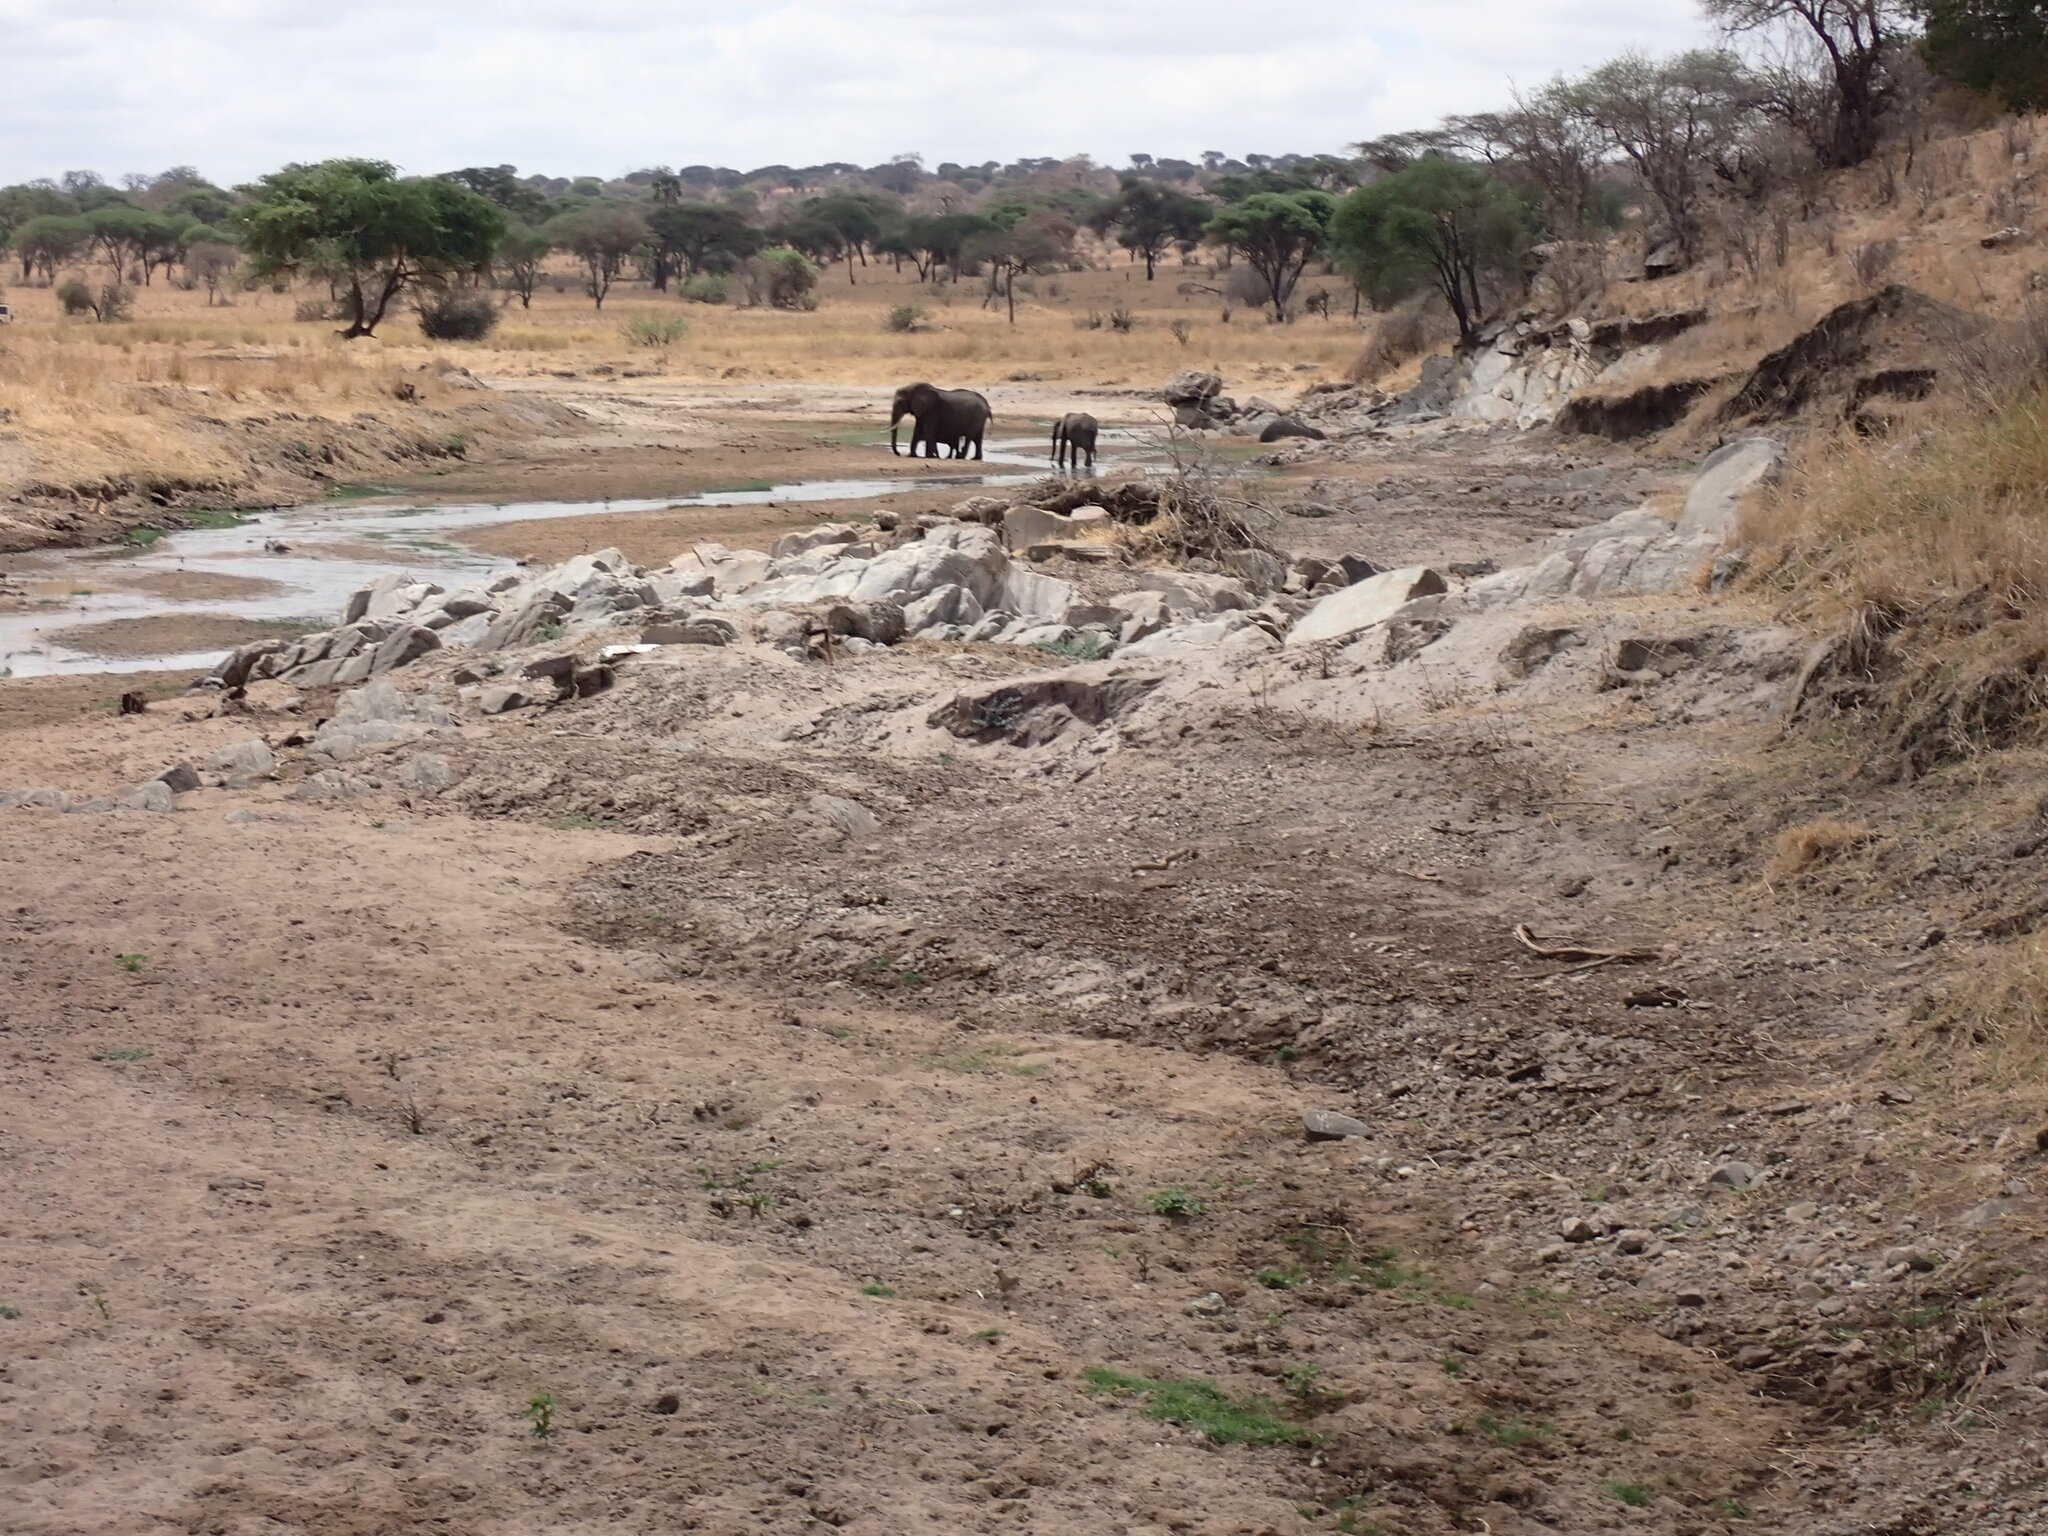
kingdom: Animalia
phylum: Chordata
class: Mammalia
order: Proboscidea
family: Elephantidae
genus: Loxodonta
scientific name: Loxodonta africana
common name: African elephant
